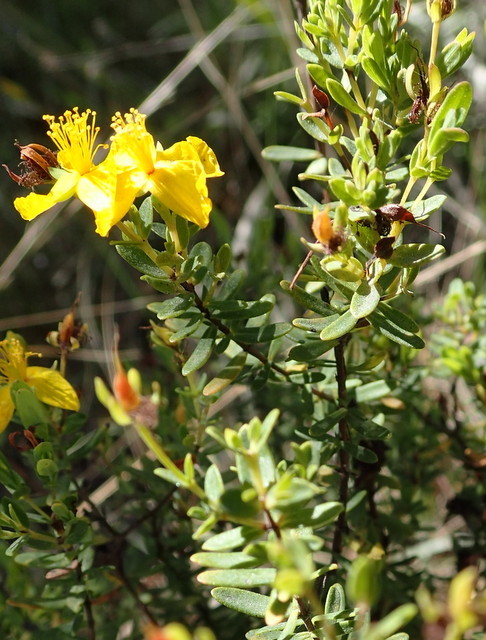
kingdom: Plantae
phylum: Tracheophyta
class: Magnoliopsida
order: Malpighiales
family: Hypericaceae
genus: Hypericum
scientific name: Hypericum microsepalum
